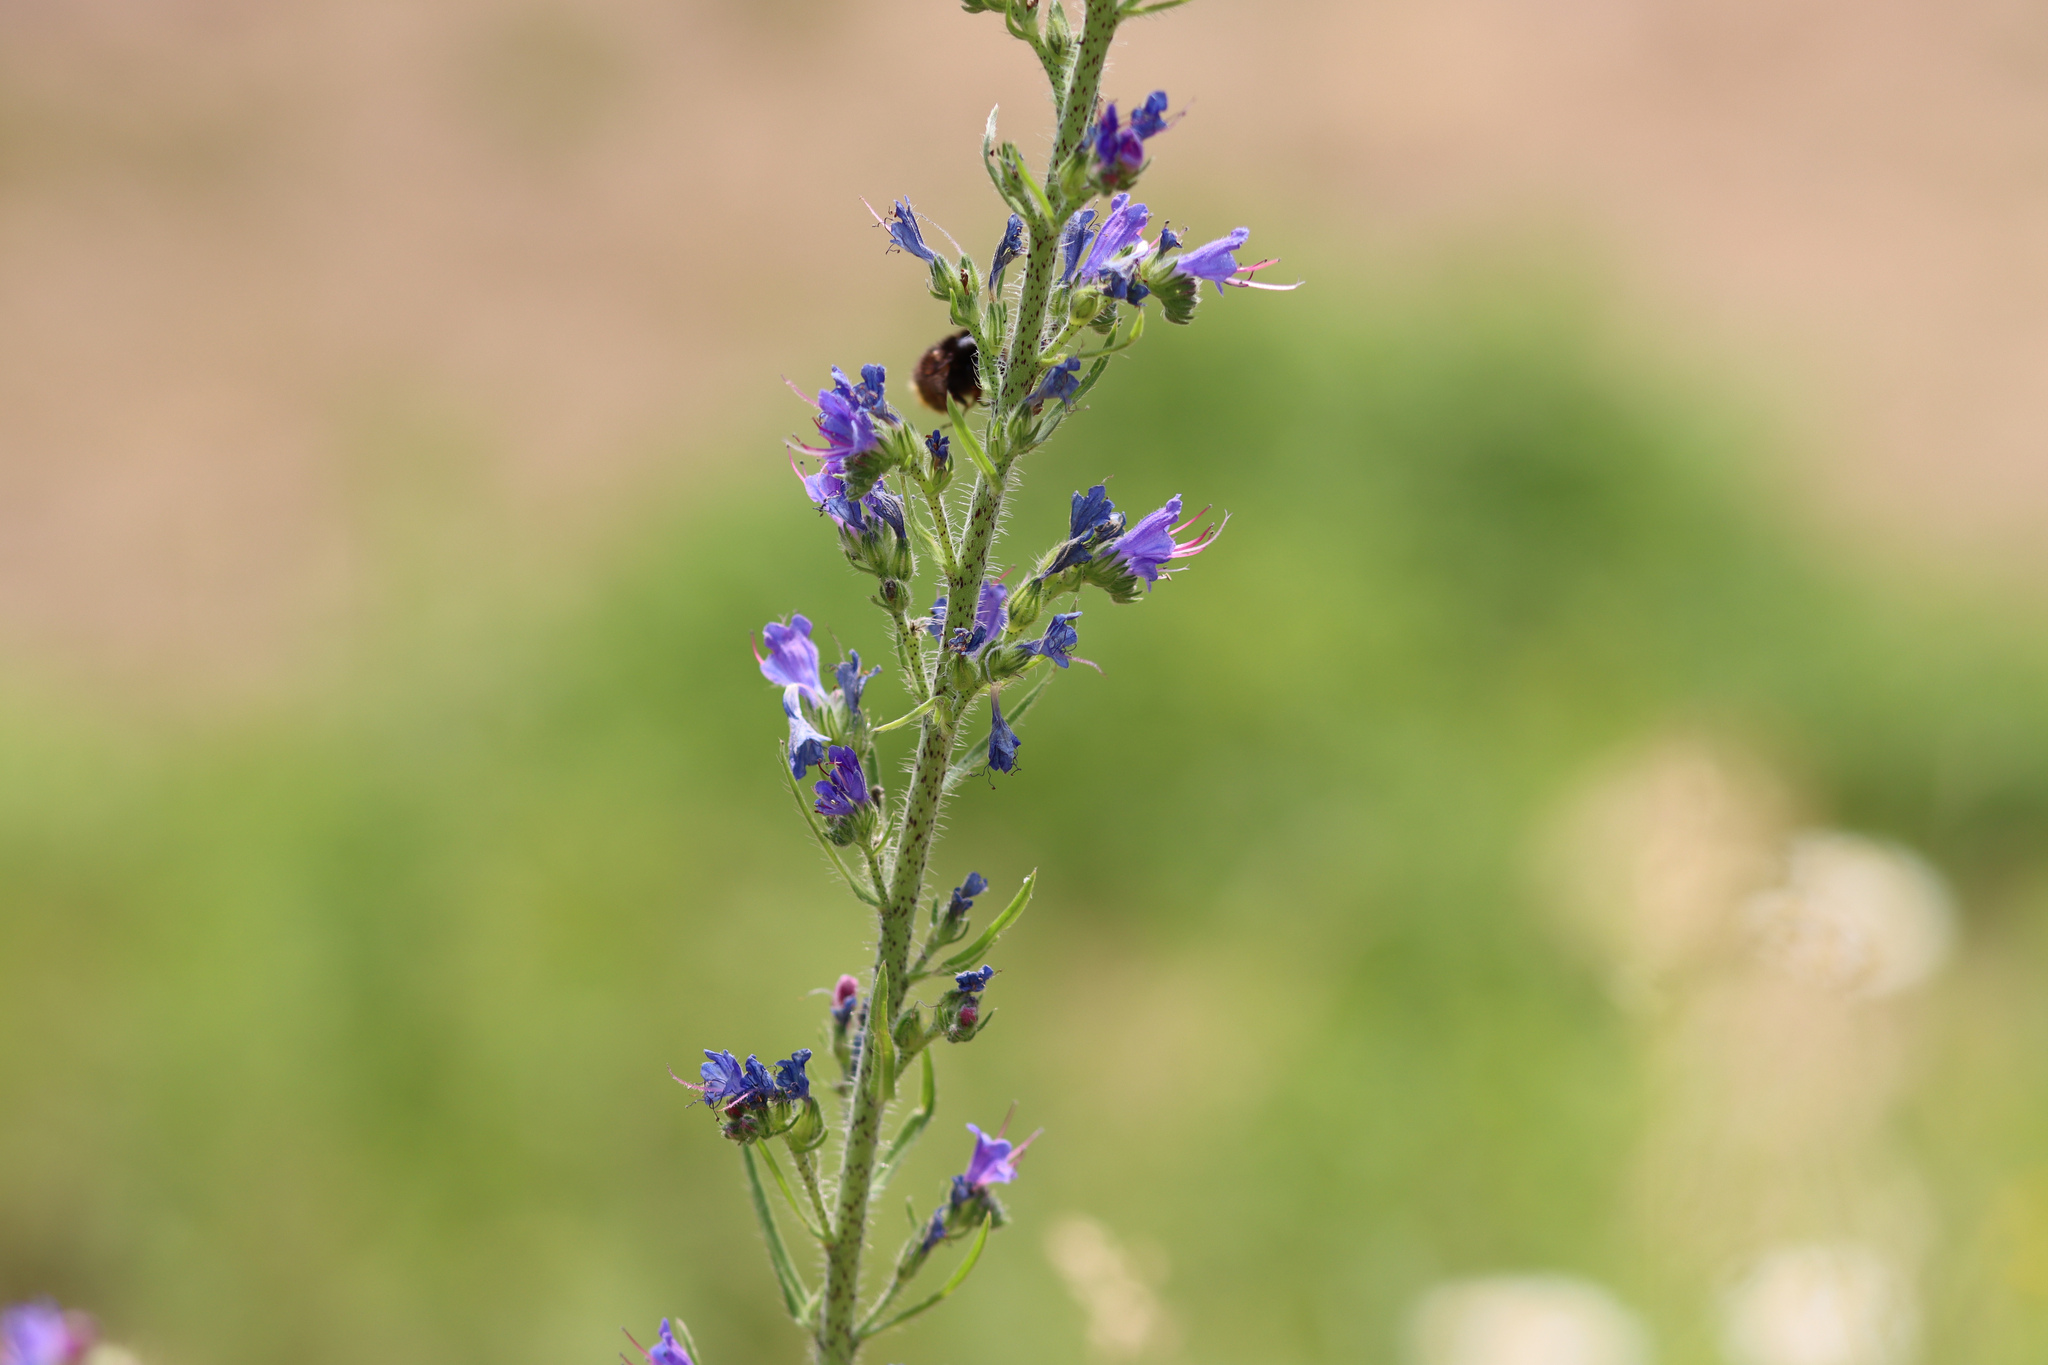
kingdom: Plantae
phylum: Tracheophyta
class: Magnoliopsida
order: Boraginales
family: Boraginaceae
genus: Echium
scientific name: Echium vulgare
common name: Common viper's bugloss
